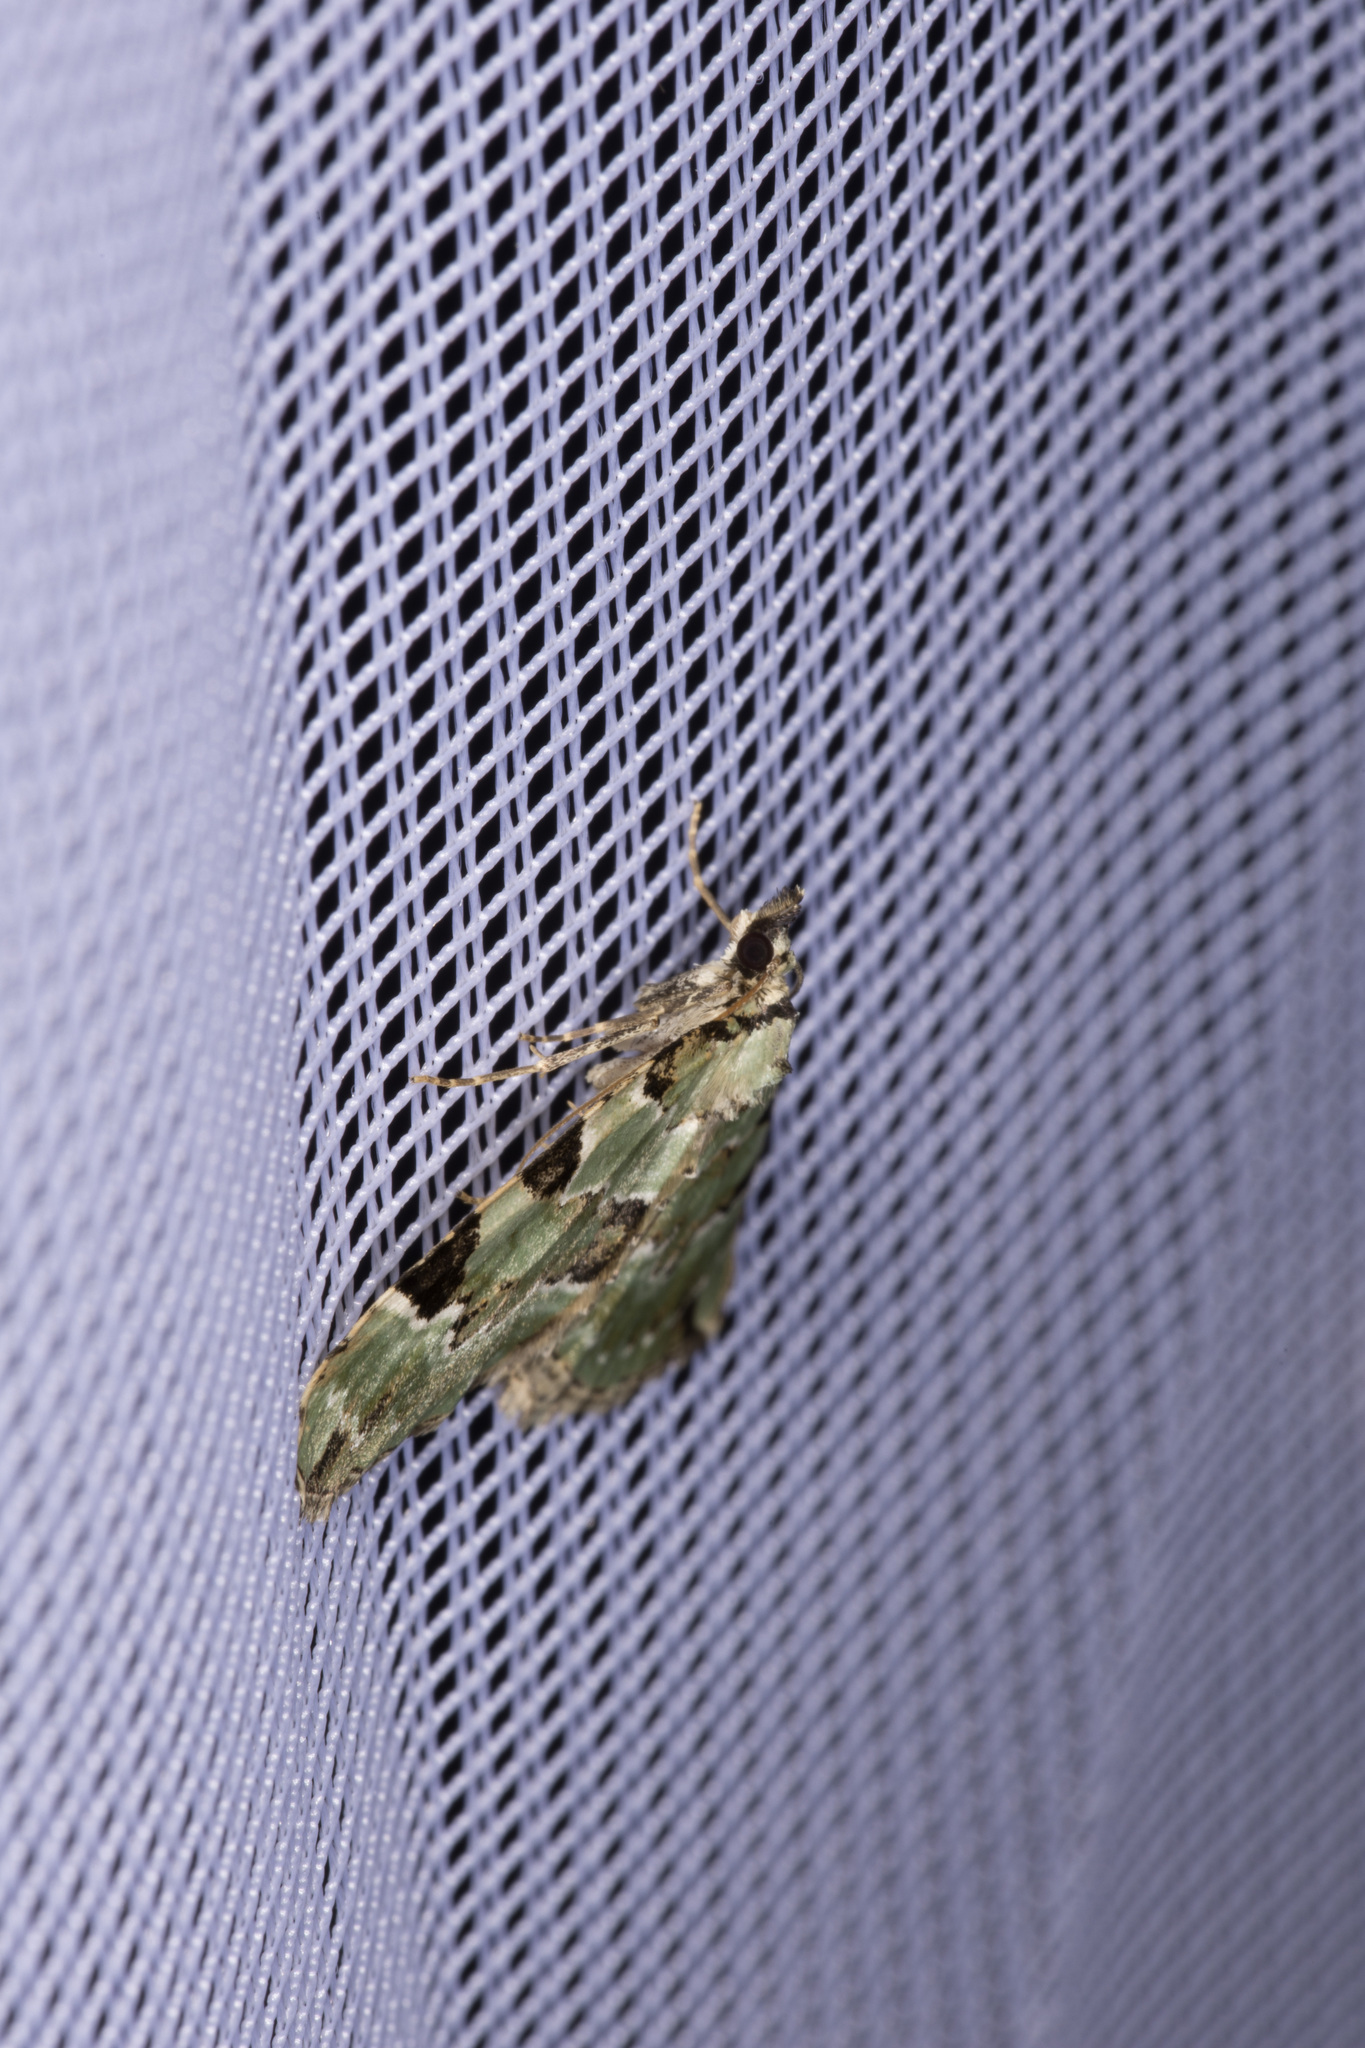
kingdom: Animalia
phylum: Arthropoda
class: Insecta
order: Lepidoptera
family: Geometridae
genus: Colostygia
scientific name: Colostygia pectinataria
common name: Green carpet
